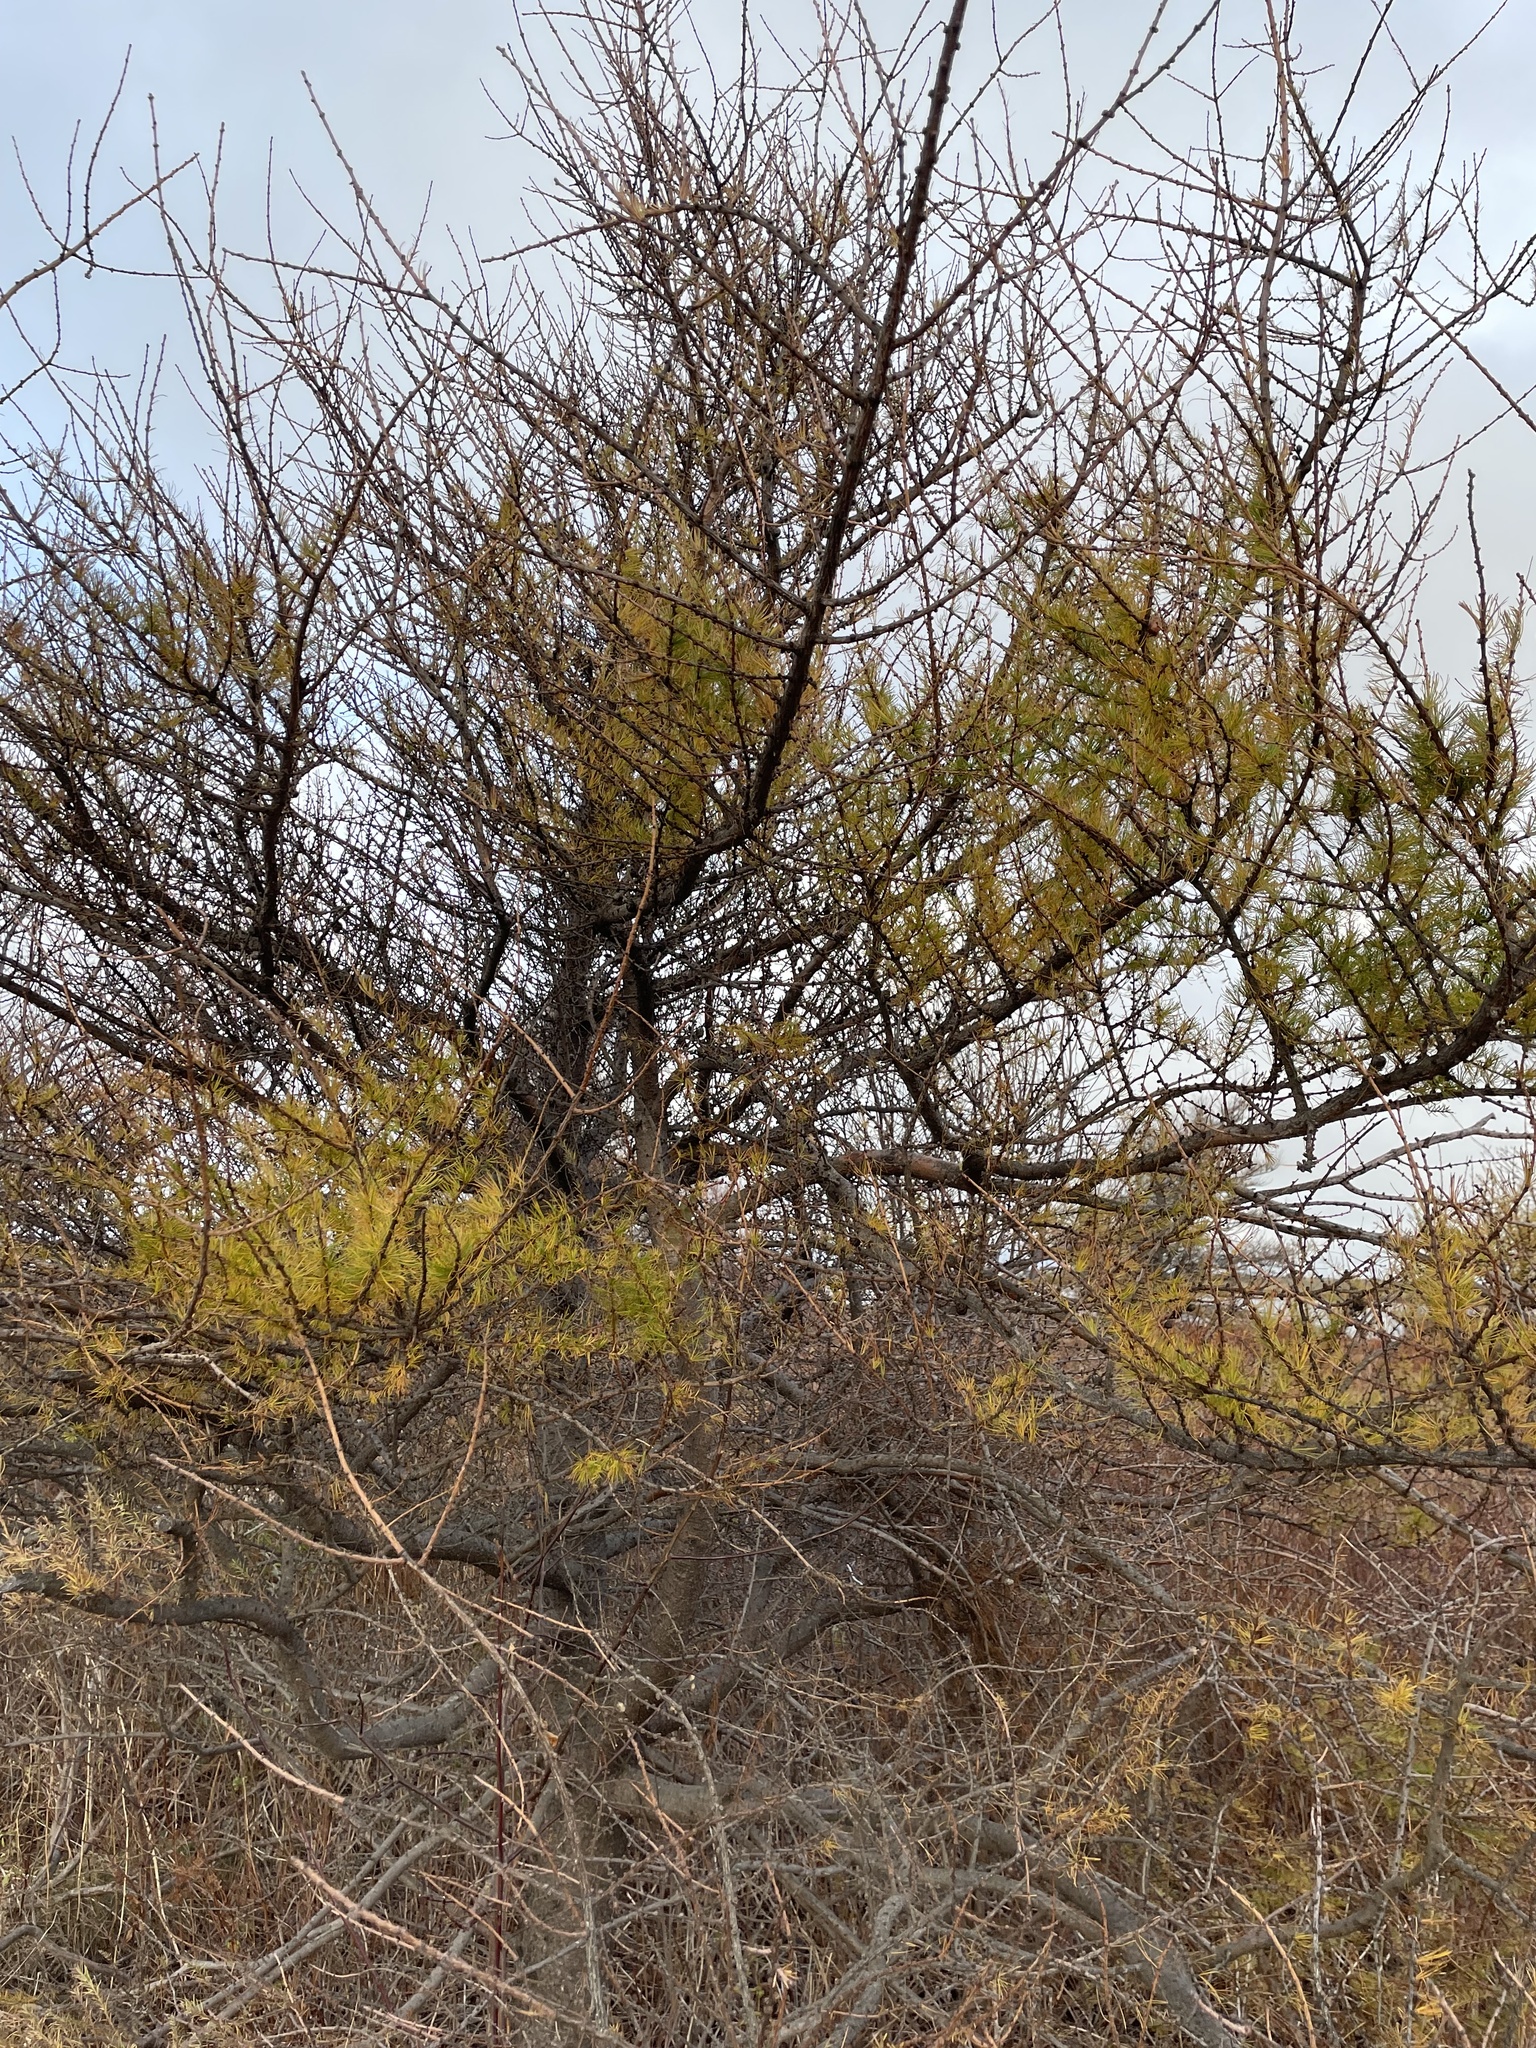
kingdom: Plantae
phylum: Tracheophyta
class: Pinopsida
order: Pinales
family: Pinaceae
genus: Larix
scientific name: Larix laricina
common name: American larch
